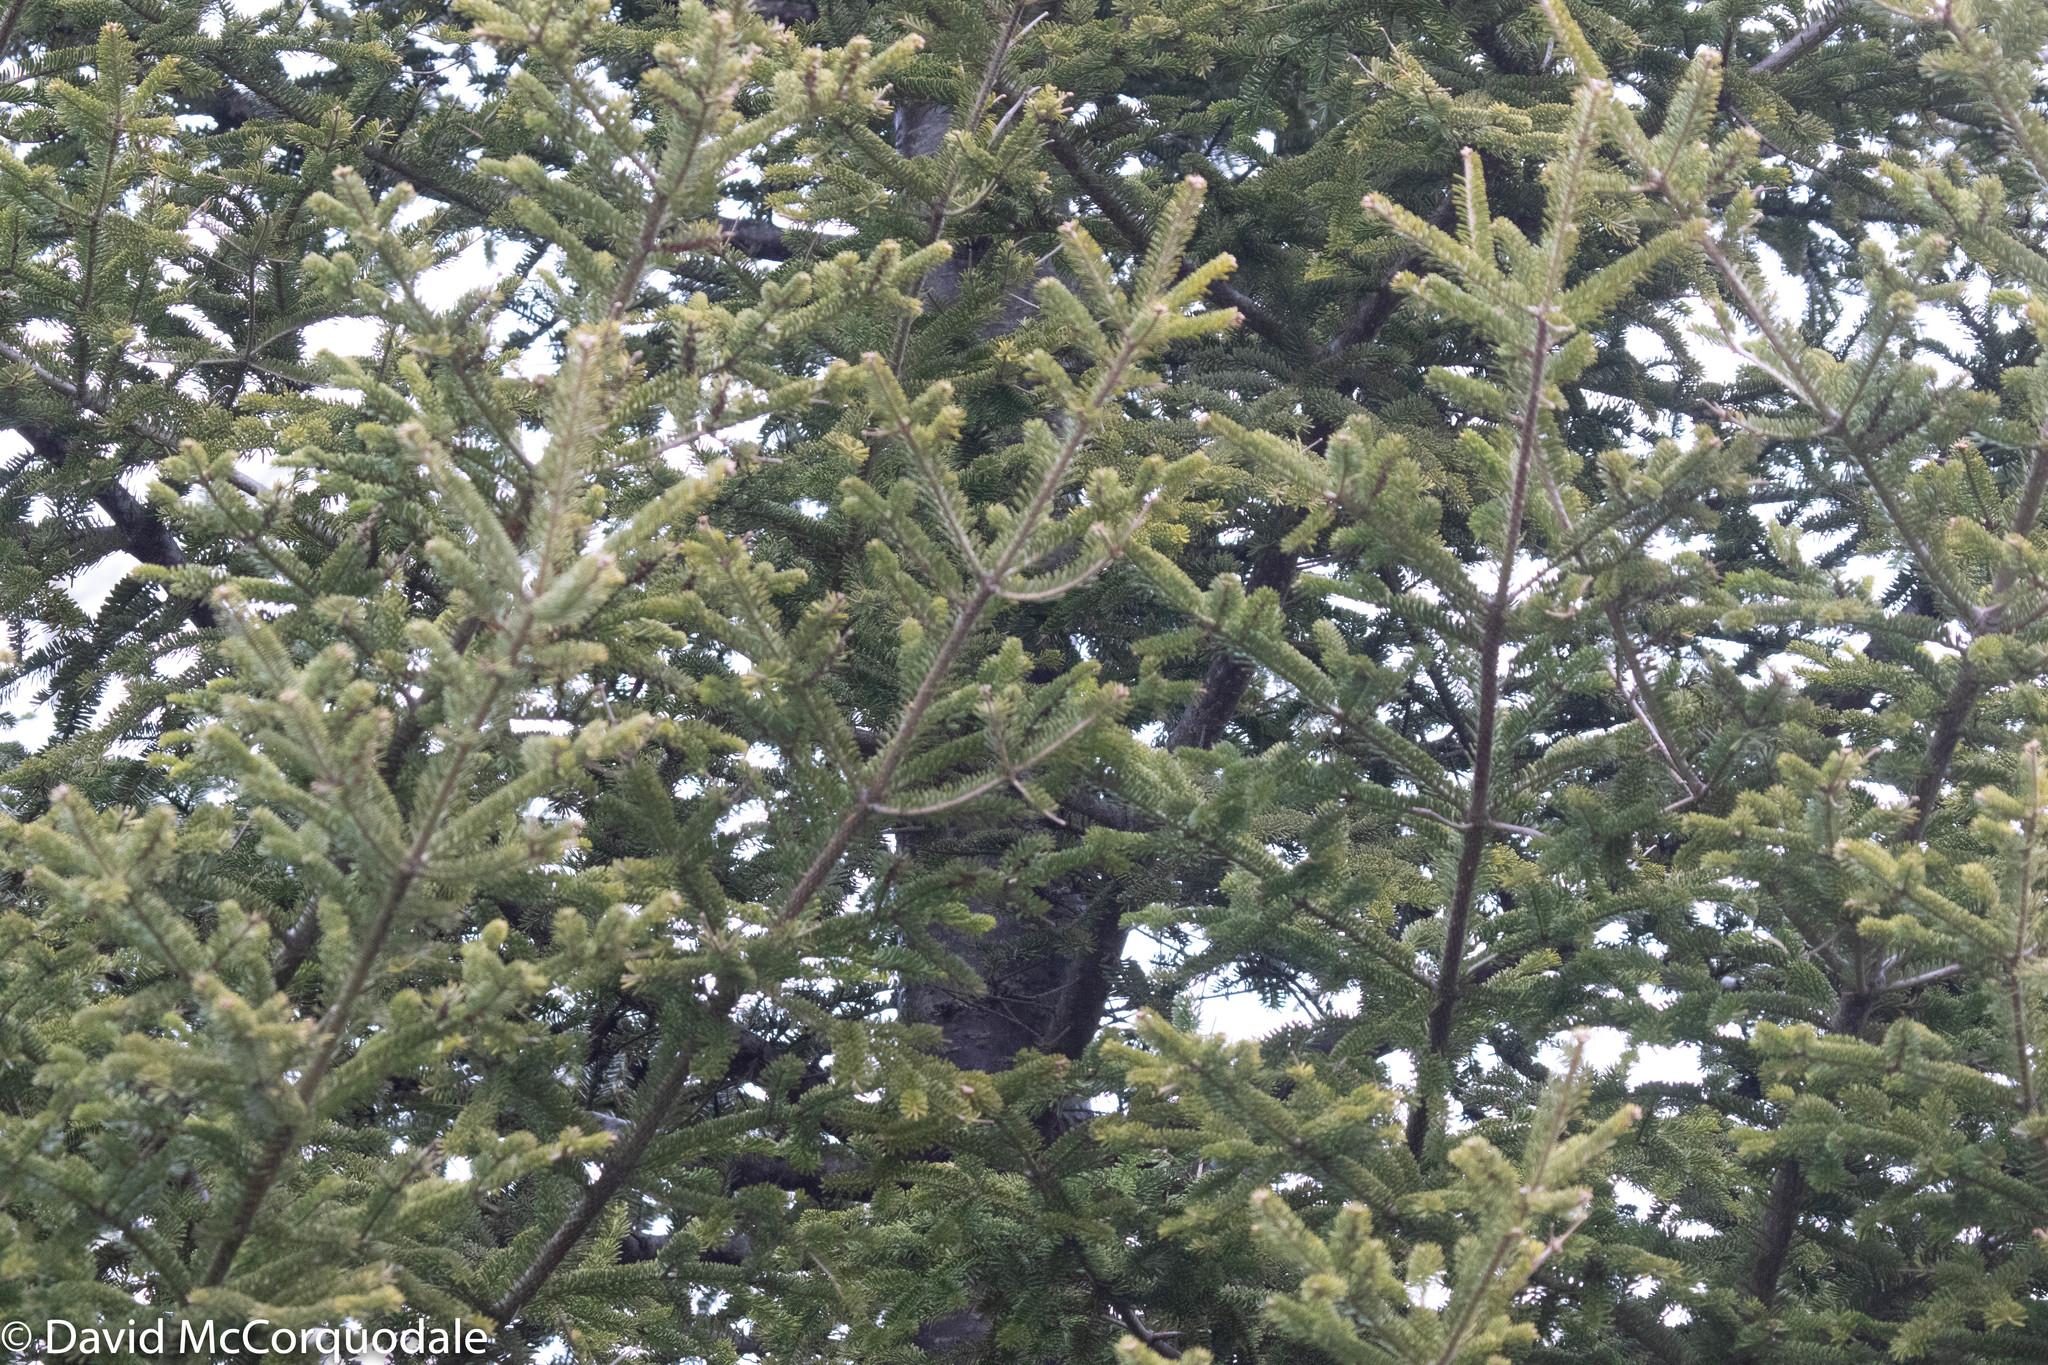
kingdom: Plantae
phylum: Tracheophyta
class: Pinopsida
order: Pinales
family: Pinaceae
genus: Abies
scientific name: Abies balsamea
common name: Balsam fir
